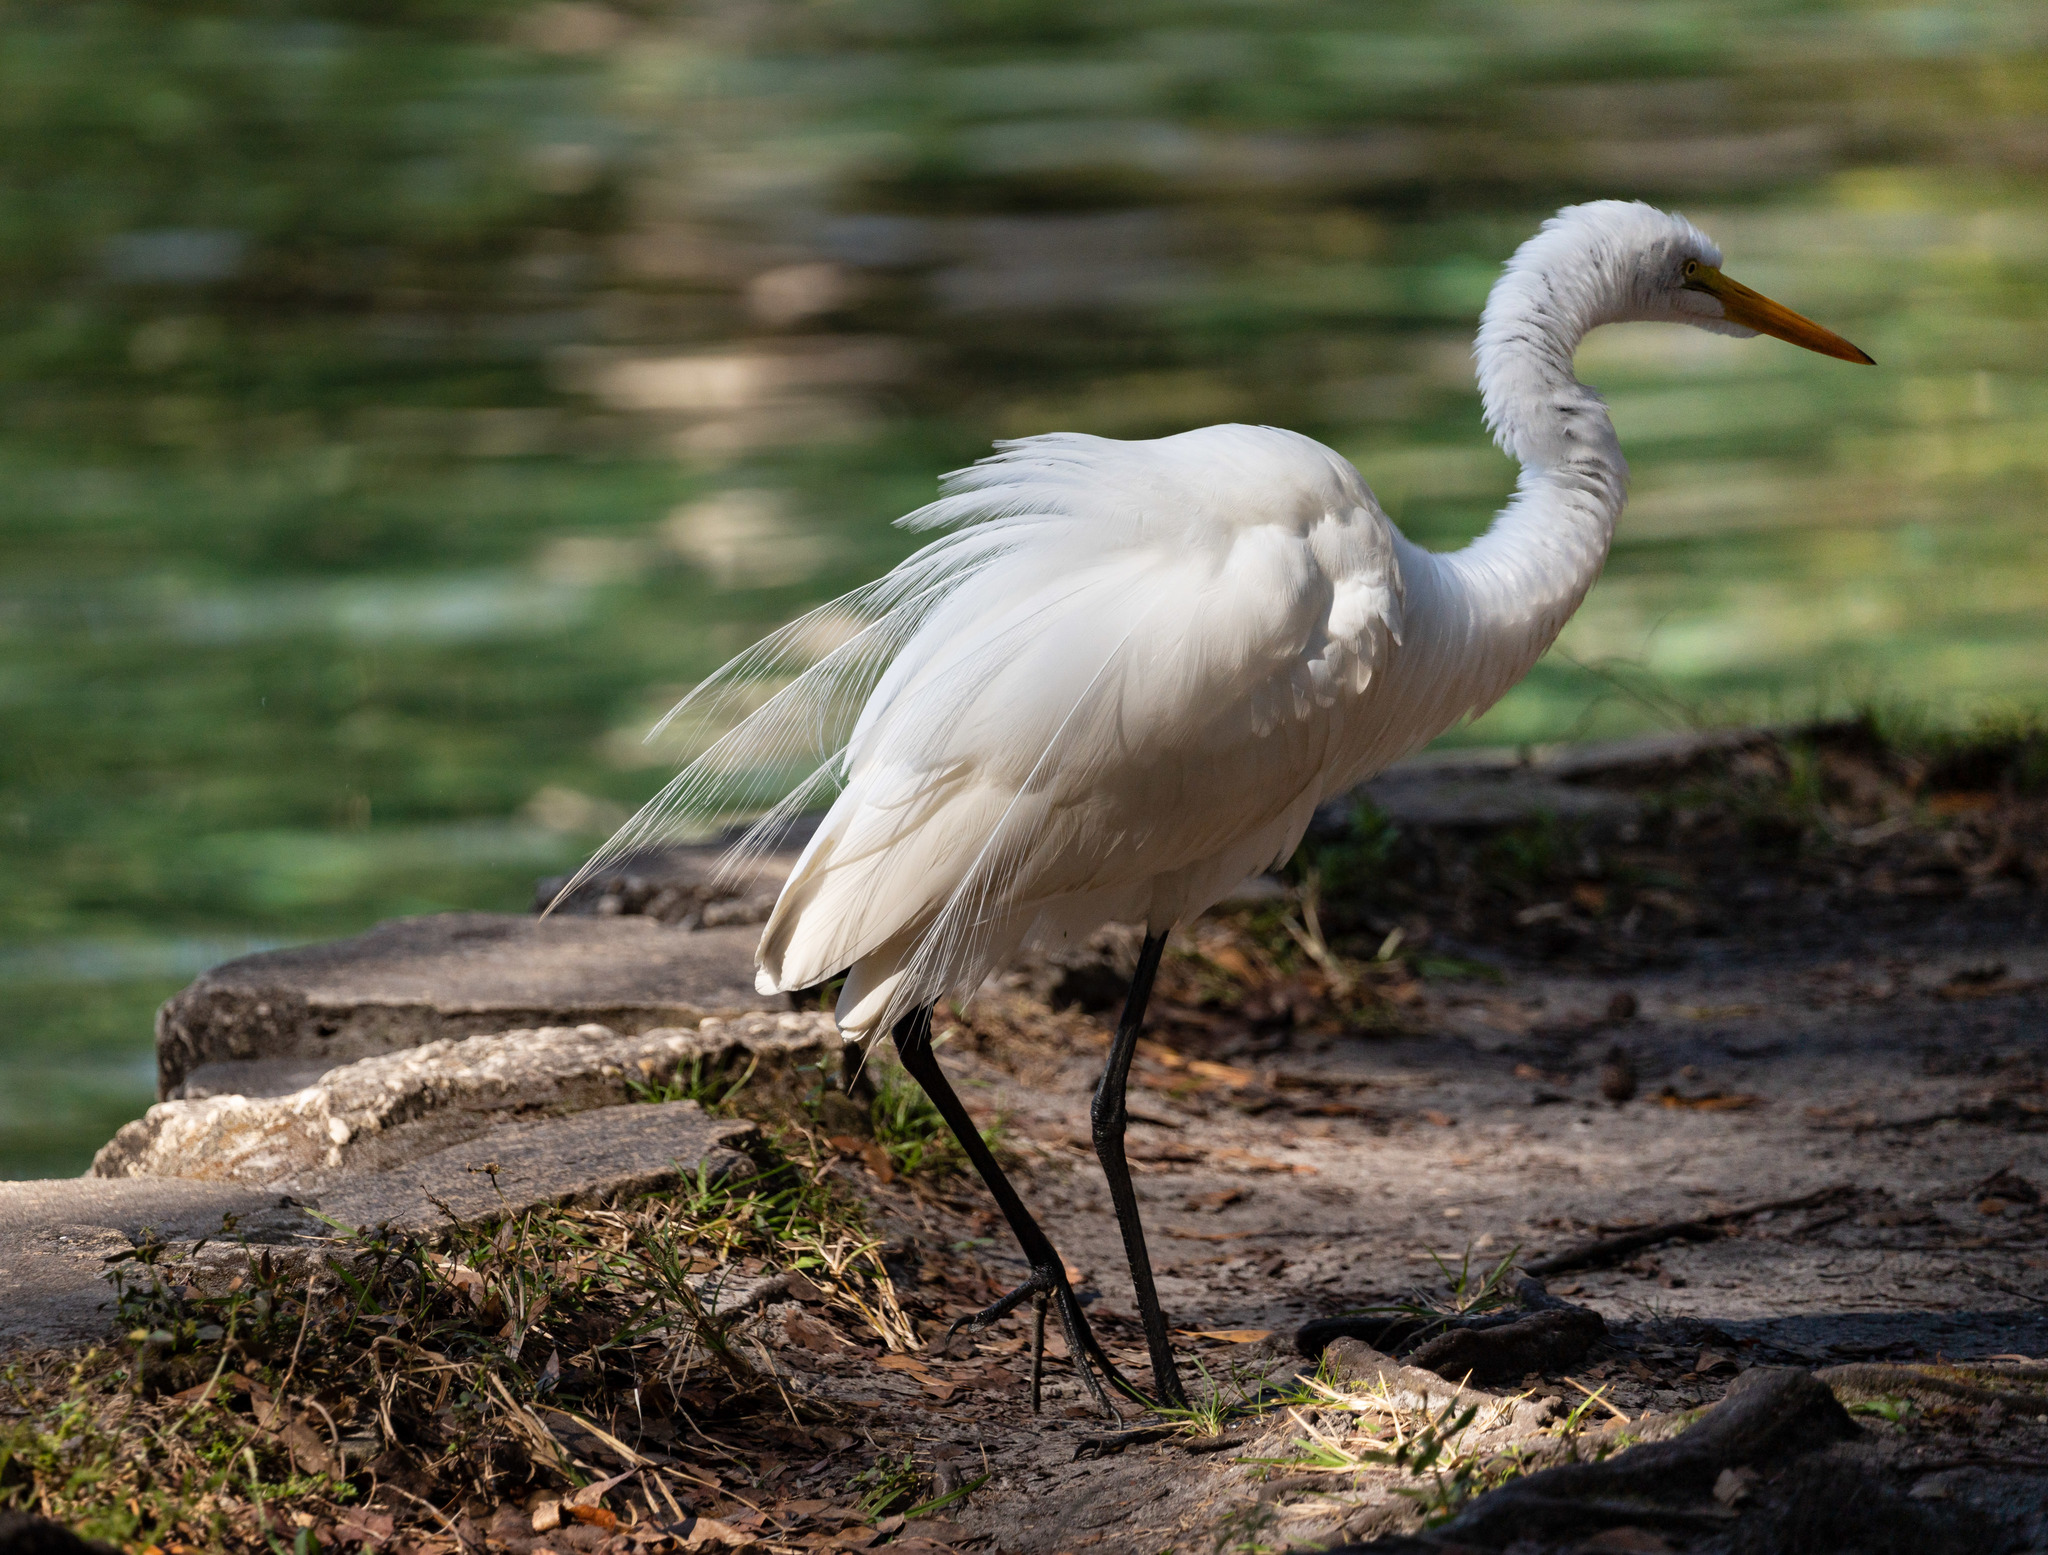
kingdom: Animalia
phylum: Chordata
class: Aves
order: Pelecaniformes
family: Ardeidae
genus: Ardea
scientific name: Ardea alba
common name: Great egret
